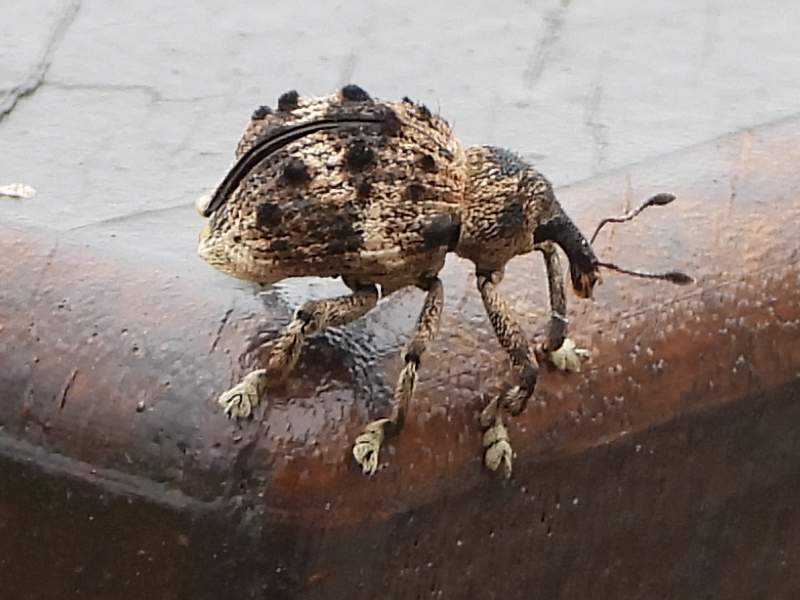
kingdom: Animalia
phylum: Arthropoda
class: Insecta
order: Coleoptera
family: Brachyceridae
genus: Desmidophorus
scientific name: Desmidophorus crassus
